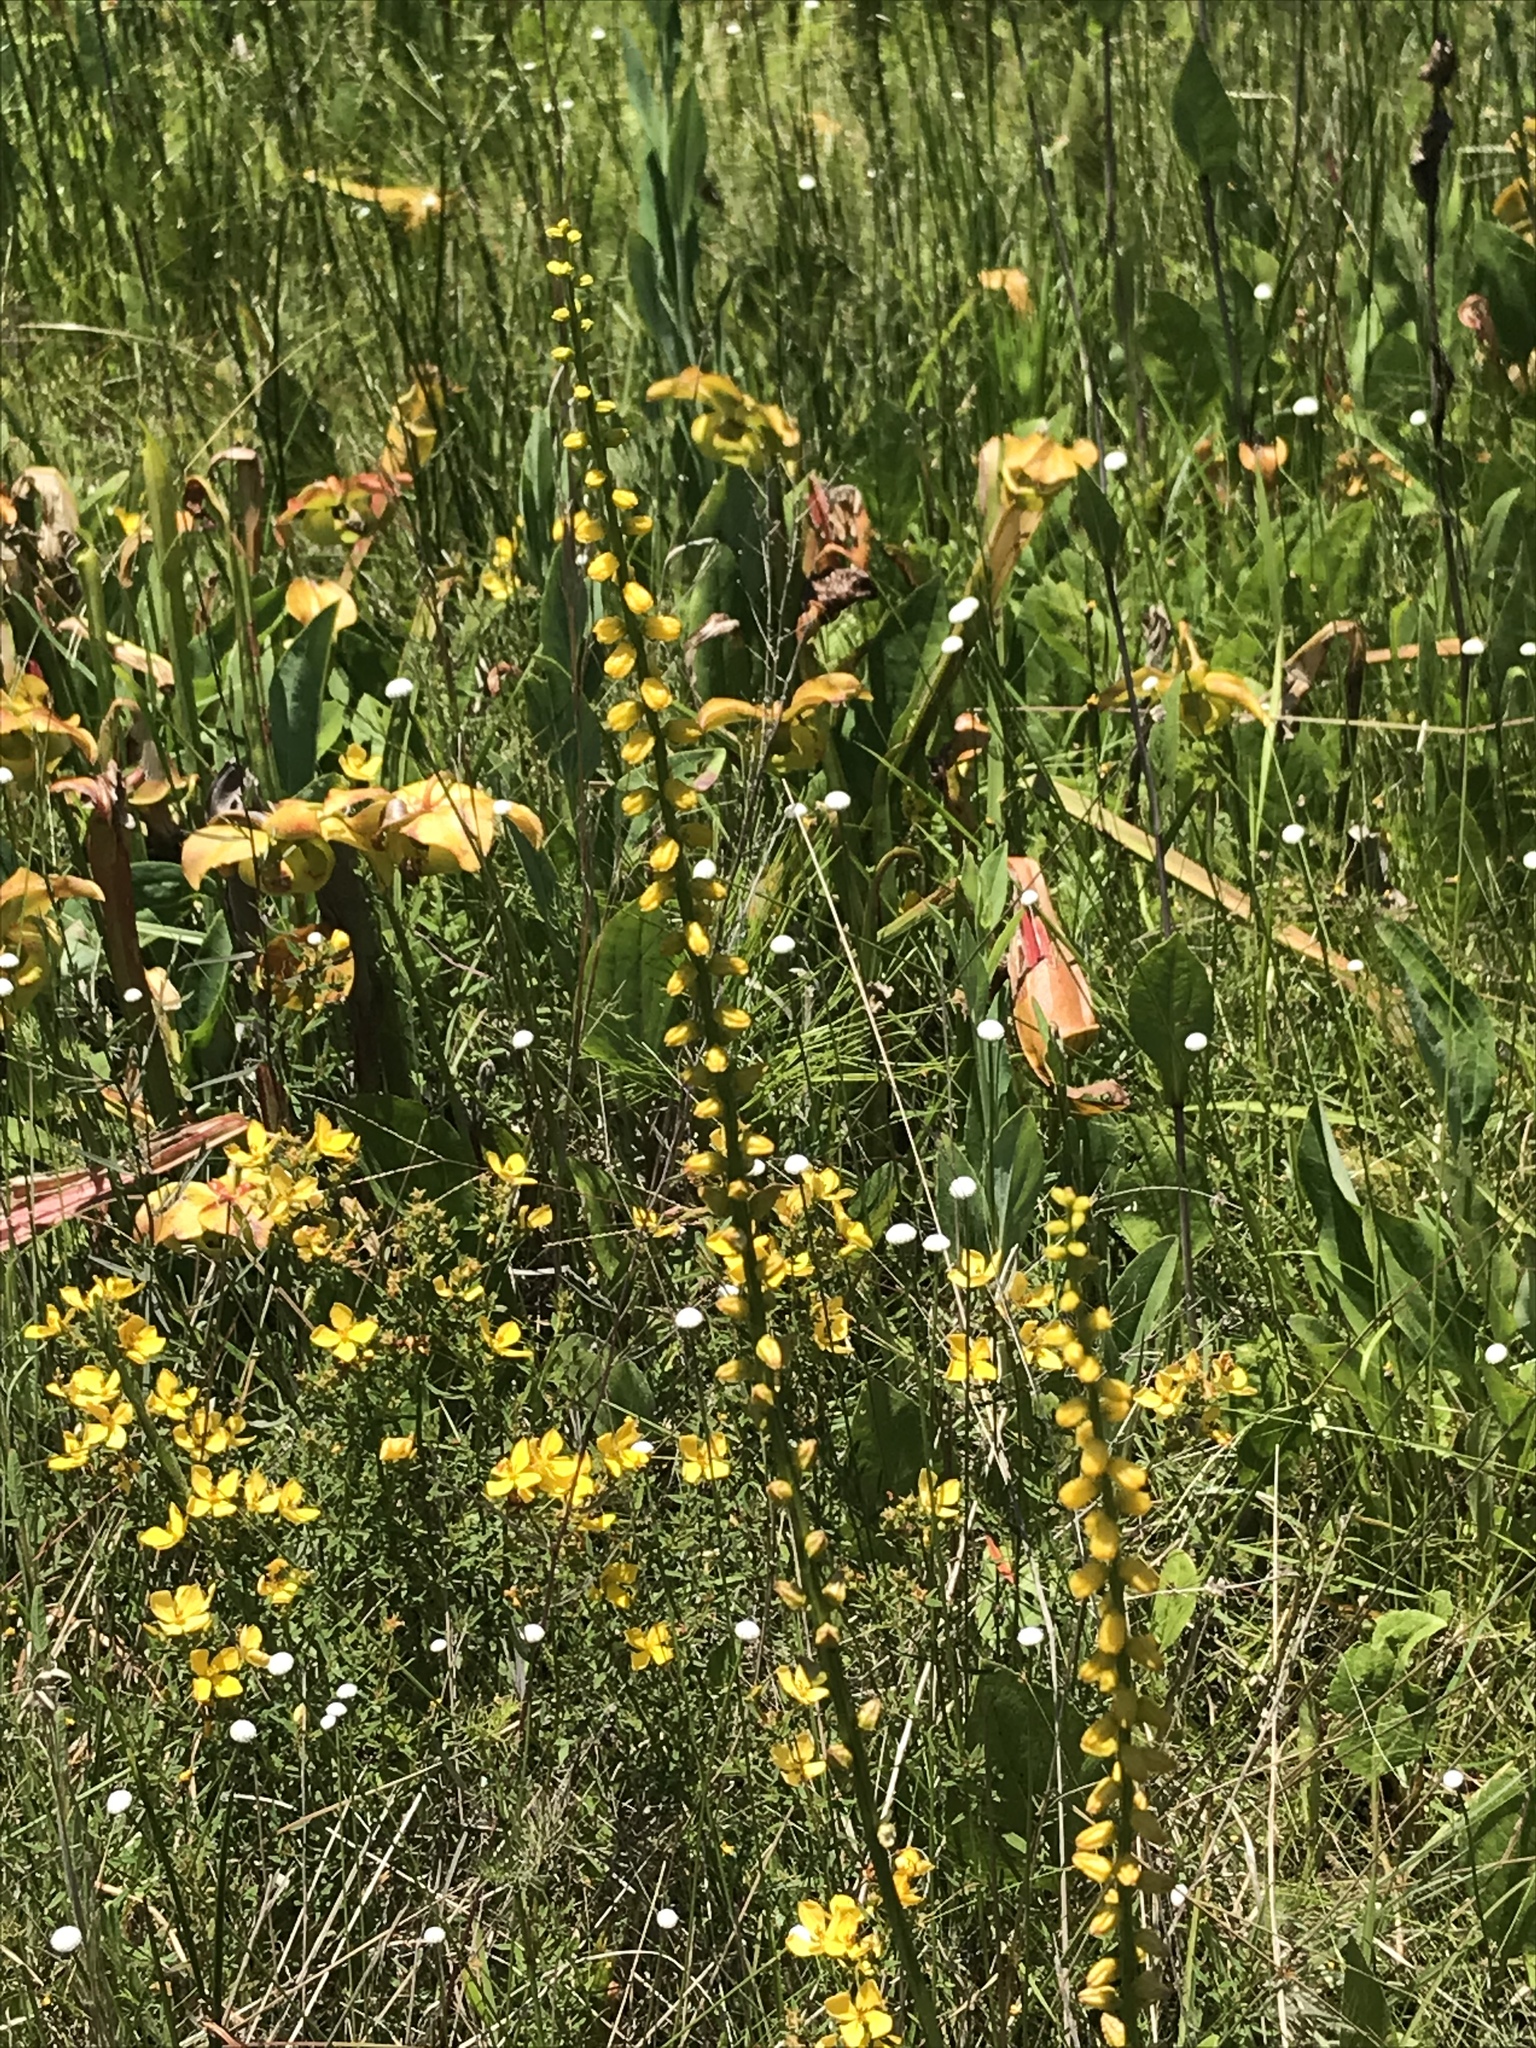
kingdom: Plantae
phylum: Tracheophyta
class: Liliopsida
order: Dioscoreales
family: Nartheciaceae
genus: Aletris
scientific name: Aletris aurea
